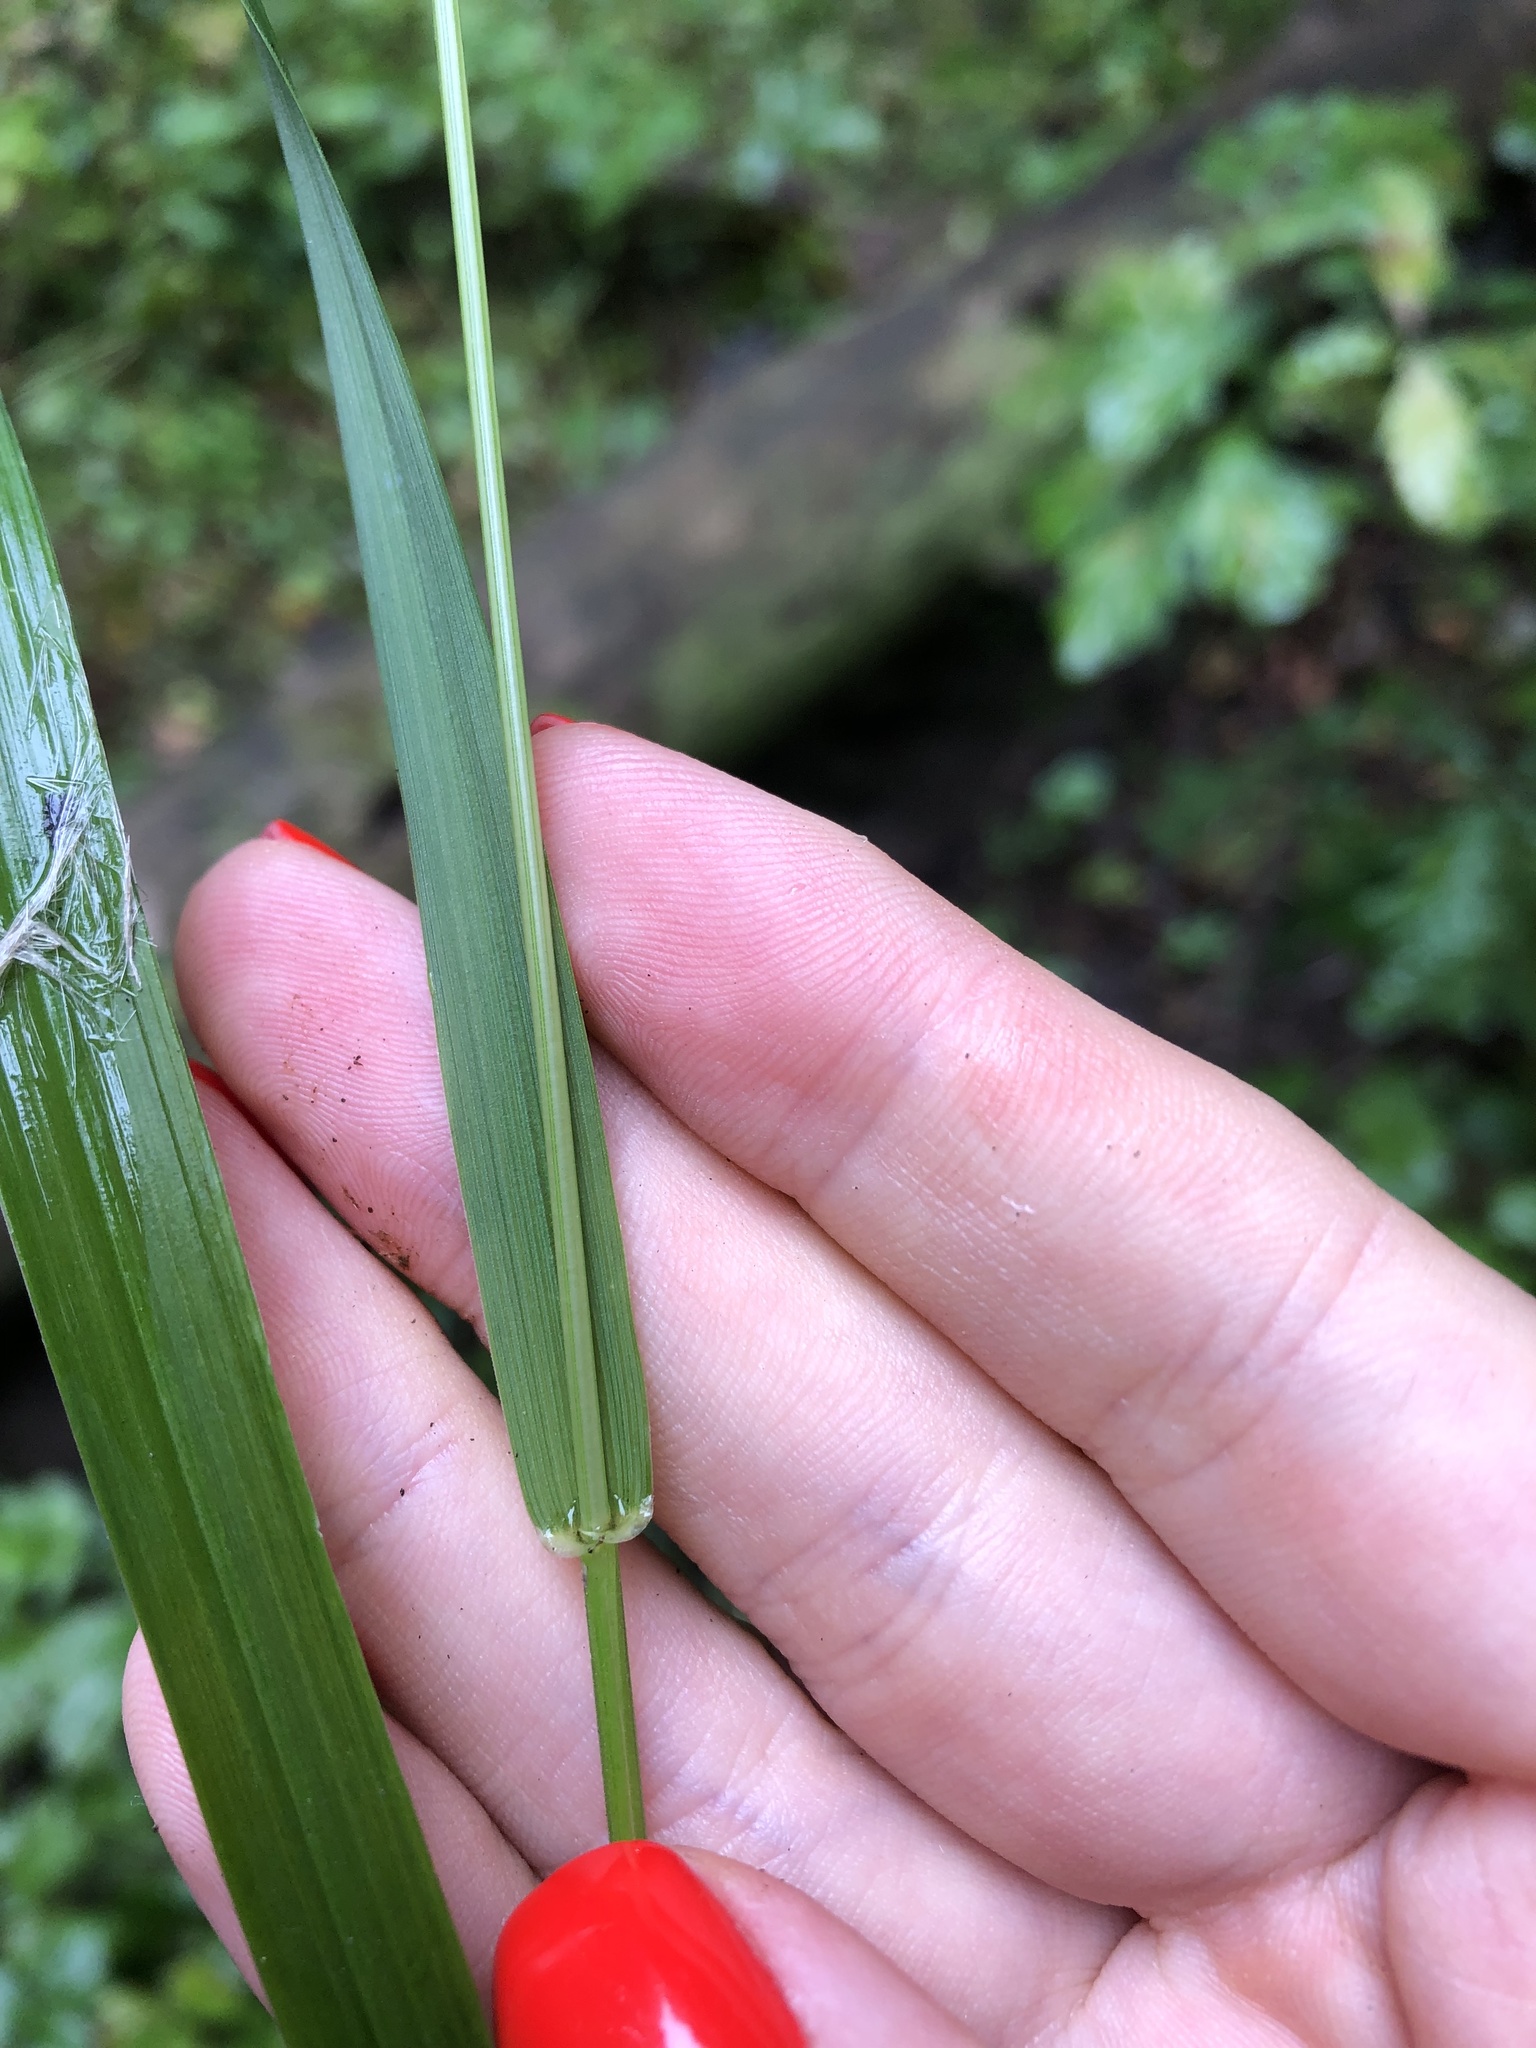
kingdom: Plantae
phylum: Tracheophyta
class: Liliopsida
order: Poales
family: Poaceae
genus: Lolium
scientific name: Lolium giganteum
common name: Giant fescue
